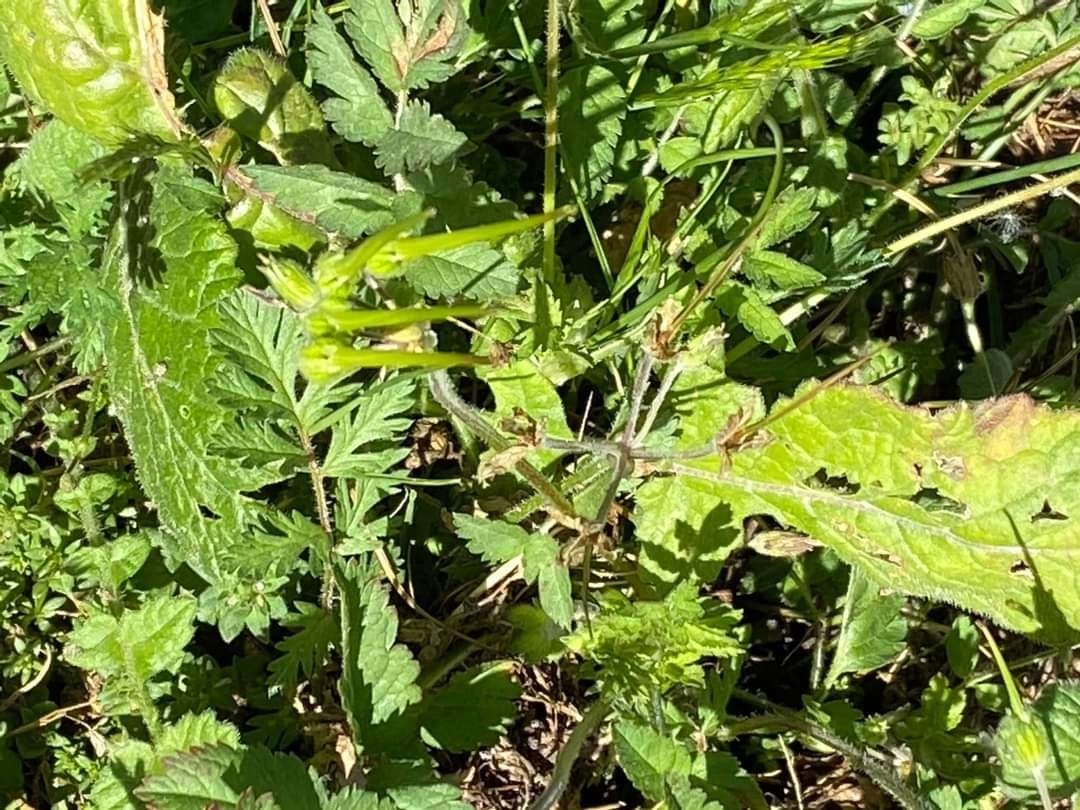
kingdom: Plantae
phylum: Tracheophyta
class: Magnoliopsida
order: Geraniales
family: Geraniaceae
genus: Erodium
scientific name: Erodium
